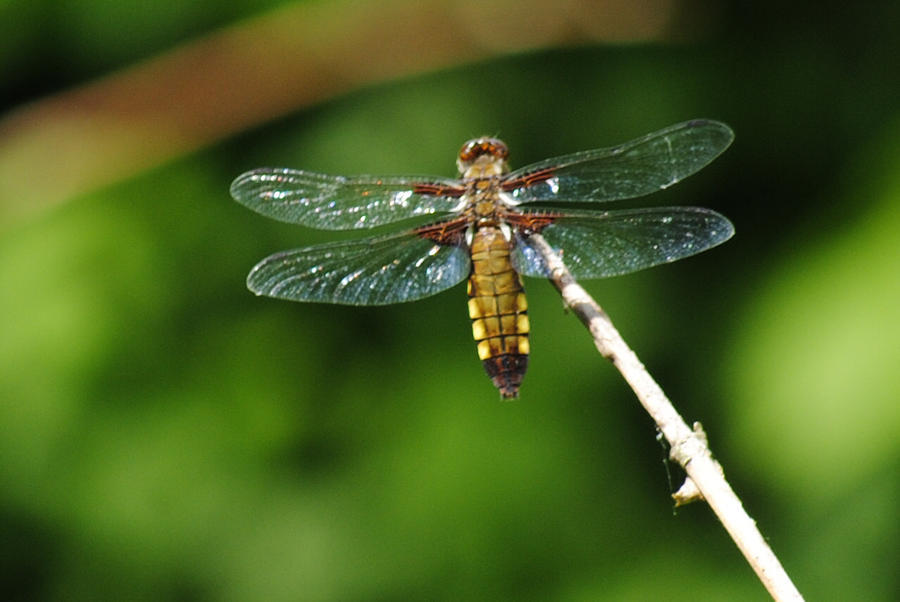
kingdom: Animalia
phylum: Arthropoda
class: Insecta
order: Odonata
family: Libellulidae
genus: Libellula
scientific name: Libellula depressa
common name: Broad-bodied chaser
